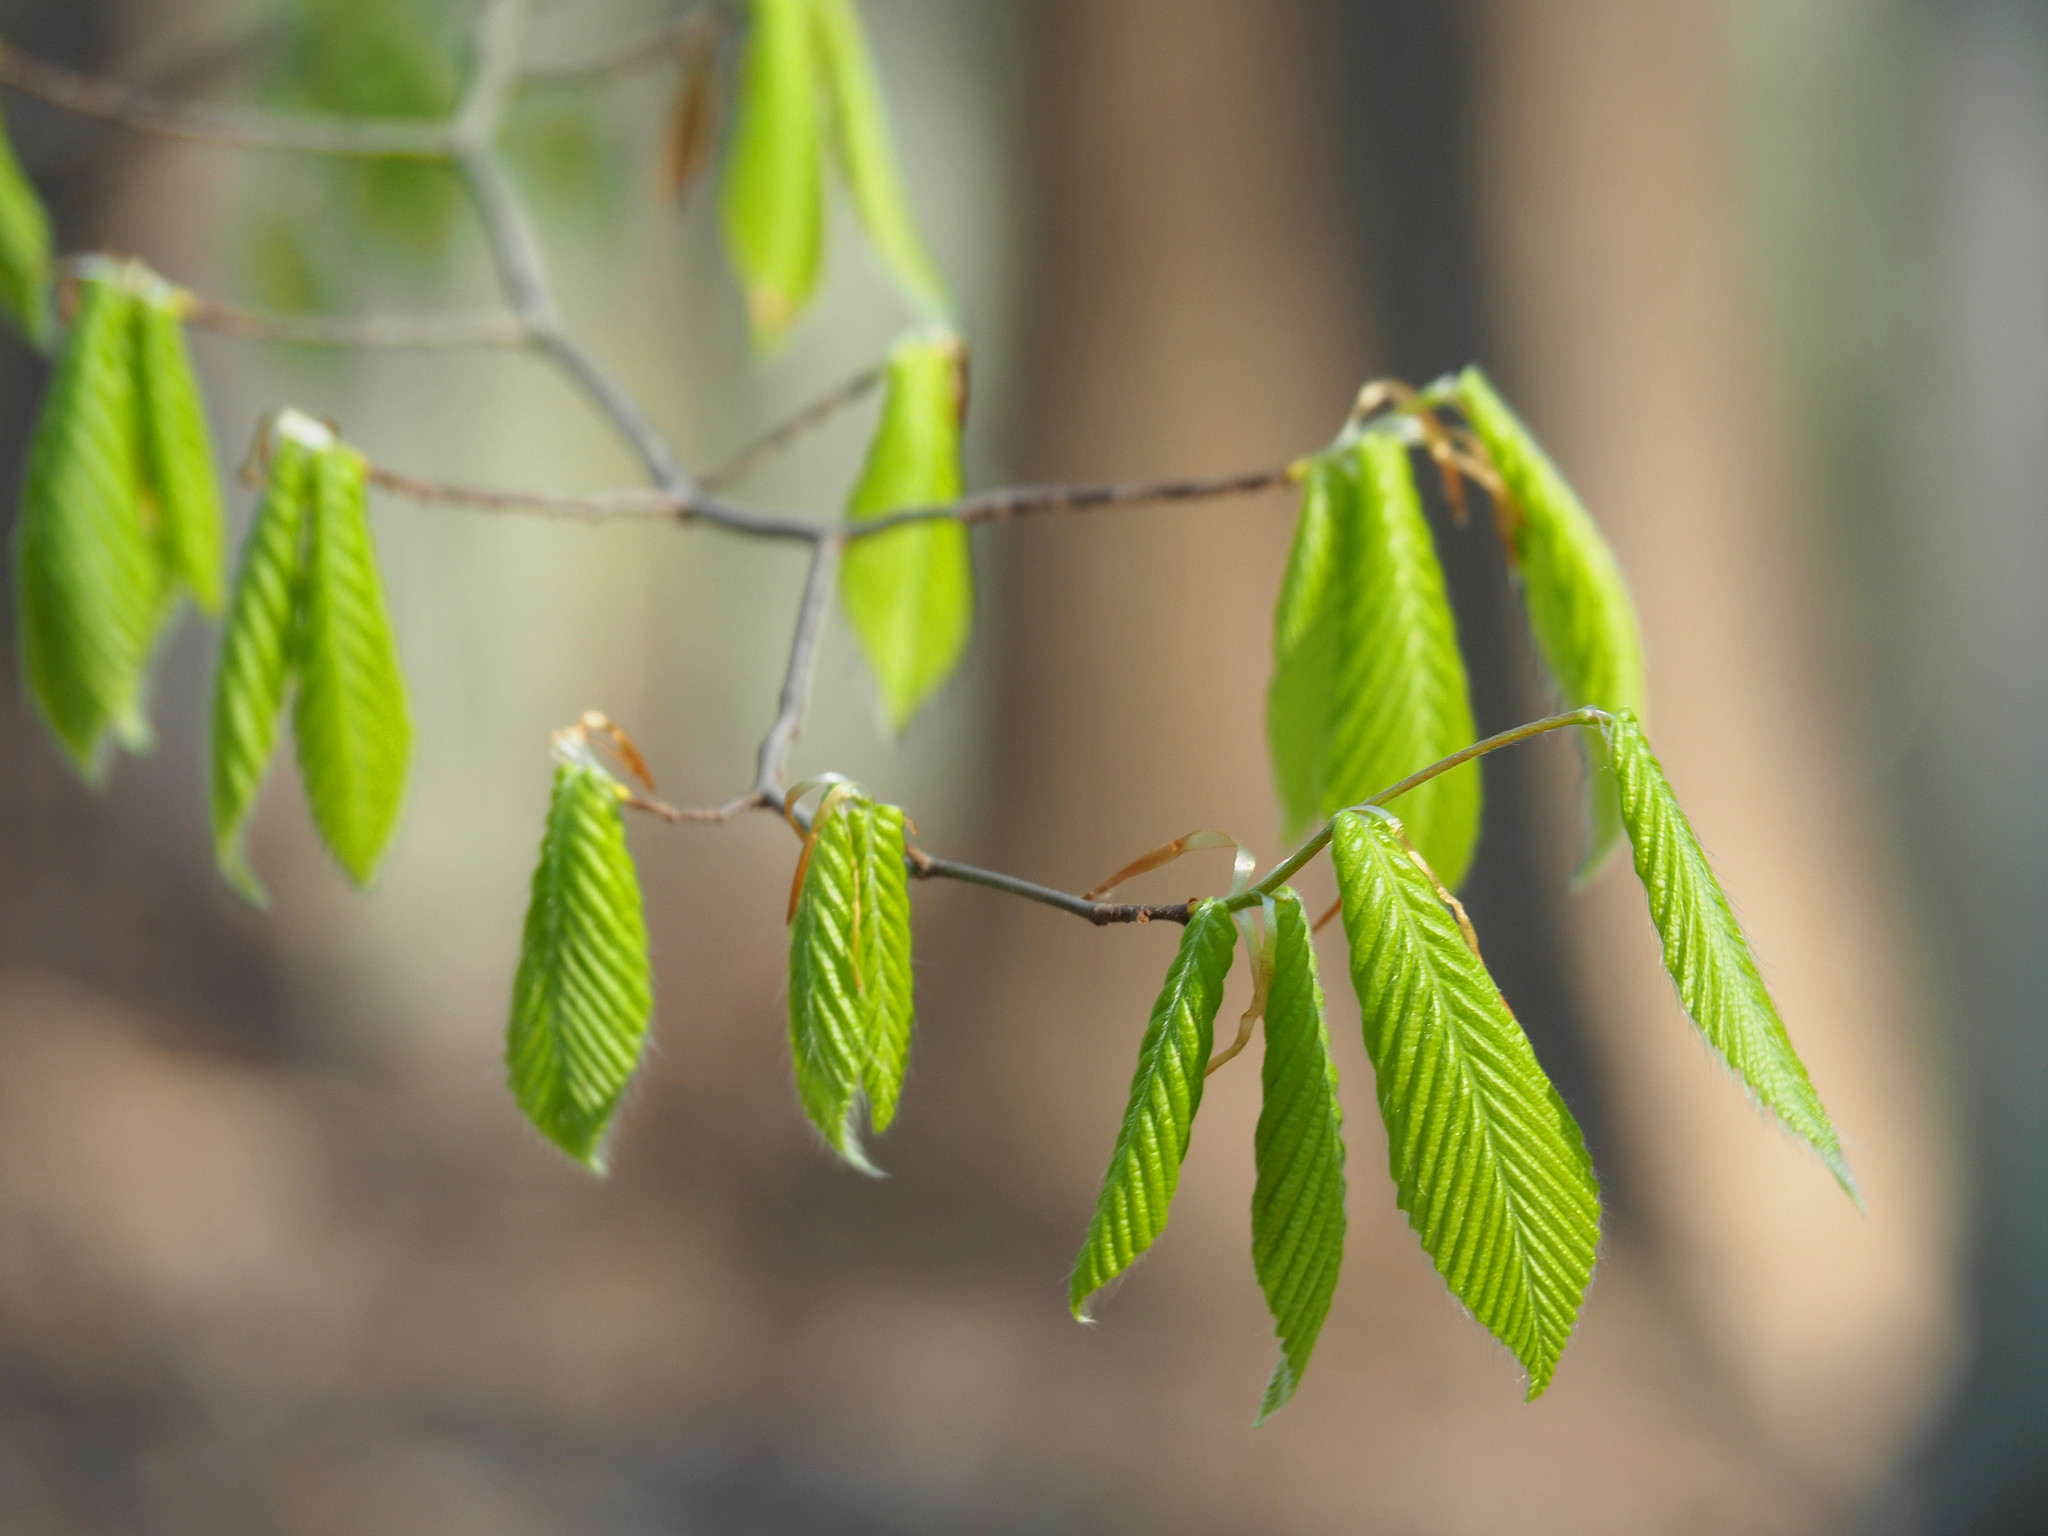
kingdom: Plantae
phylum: Tracheophyta
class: Magnoliopsida
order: Fagales
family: Fagaceae
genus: Fagus
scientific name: Fagus grandifolia
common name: American beech
